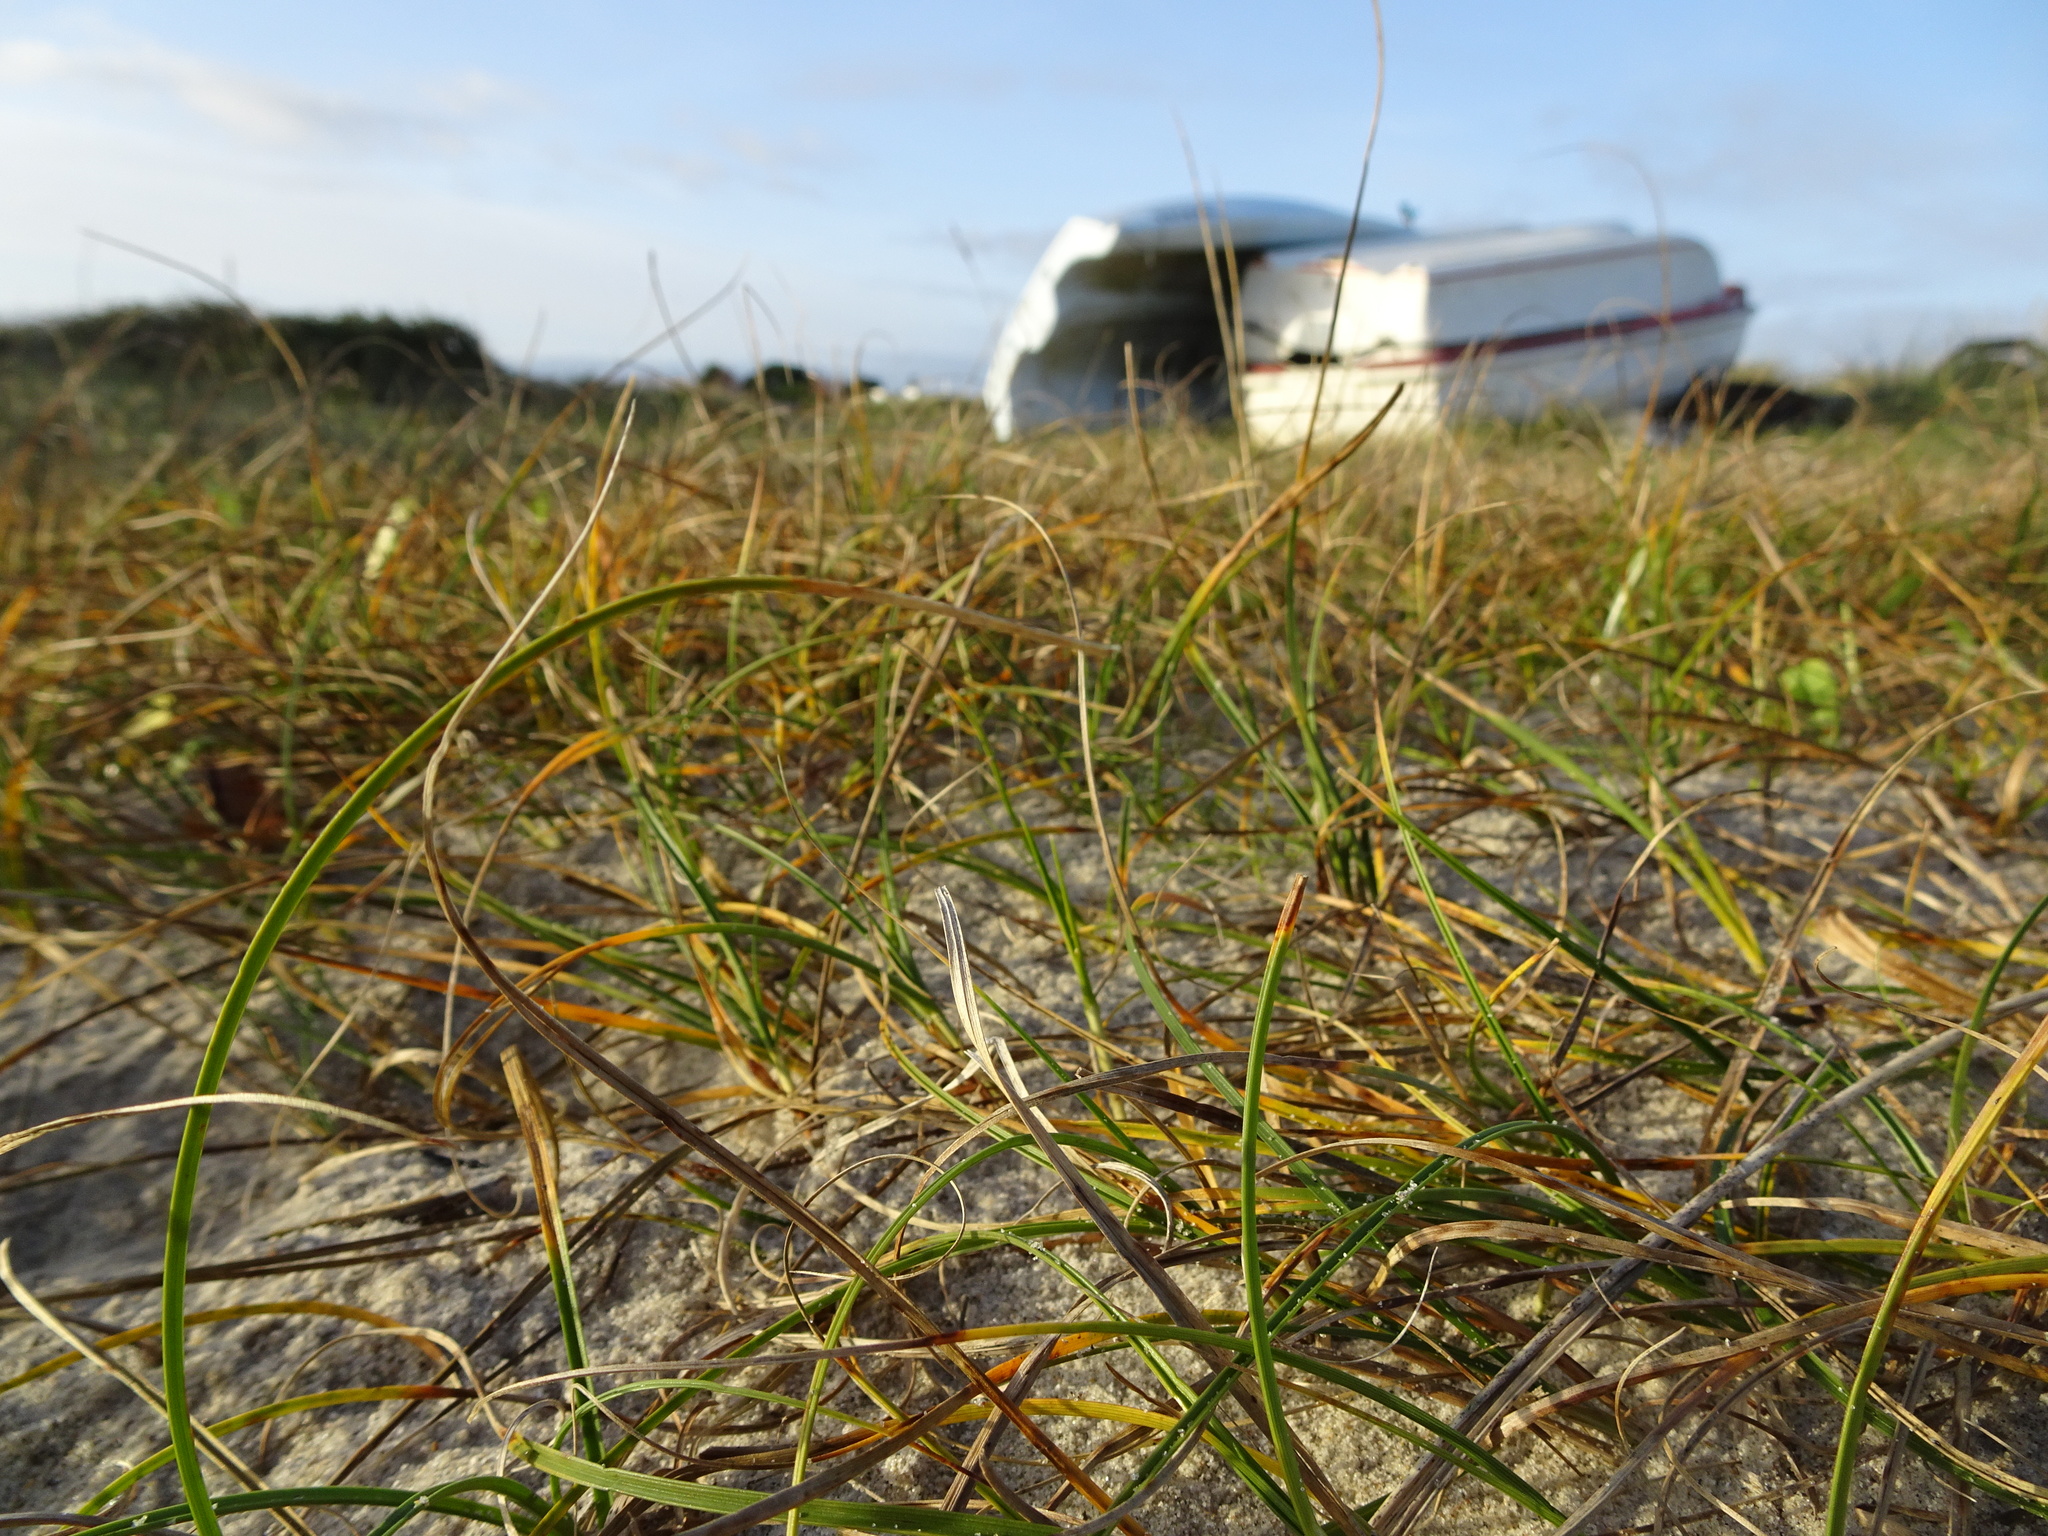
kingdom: Plantae
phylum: Tracheophyta
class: Liliopsida
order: Poales
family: Cyperaceae
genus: Carex
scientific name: Carex arenaria
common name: Sand sedge
